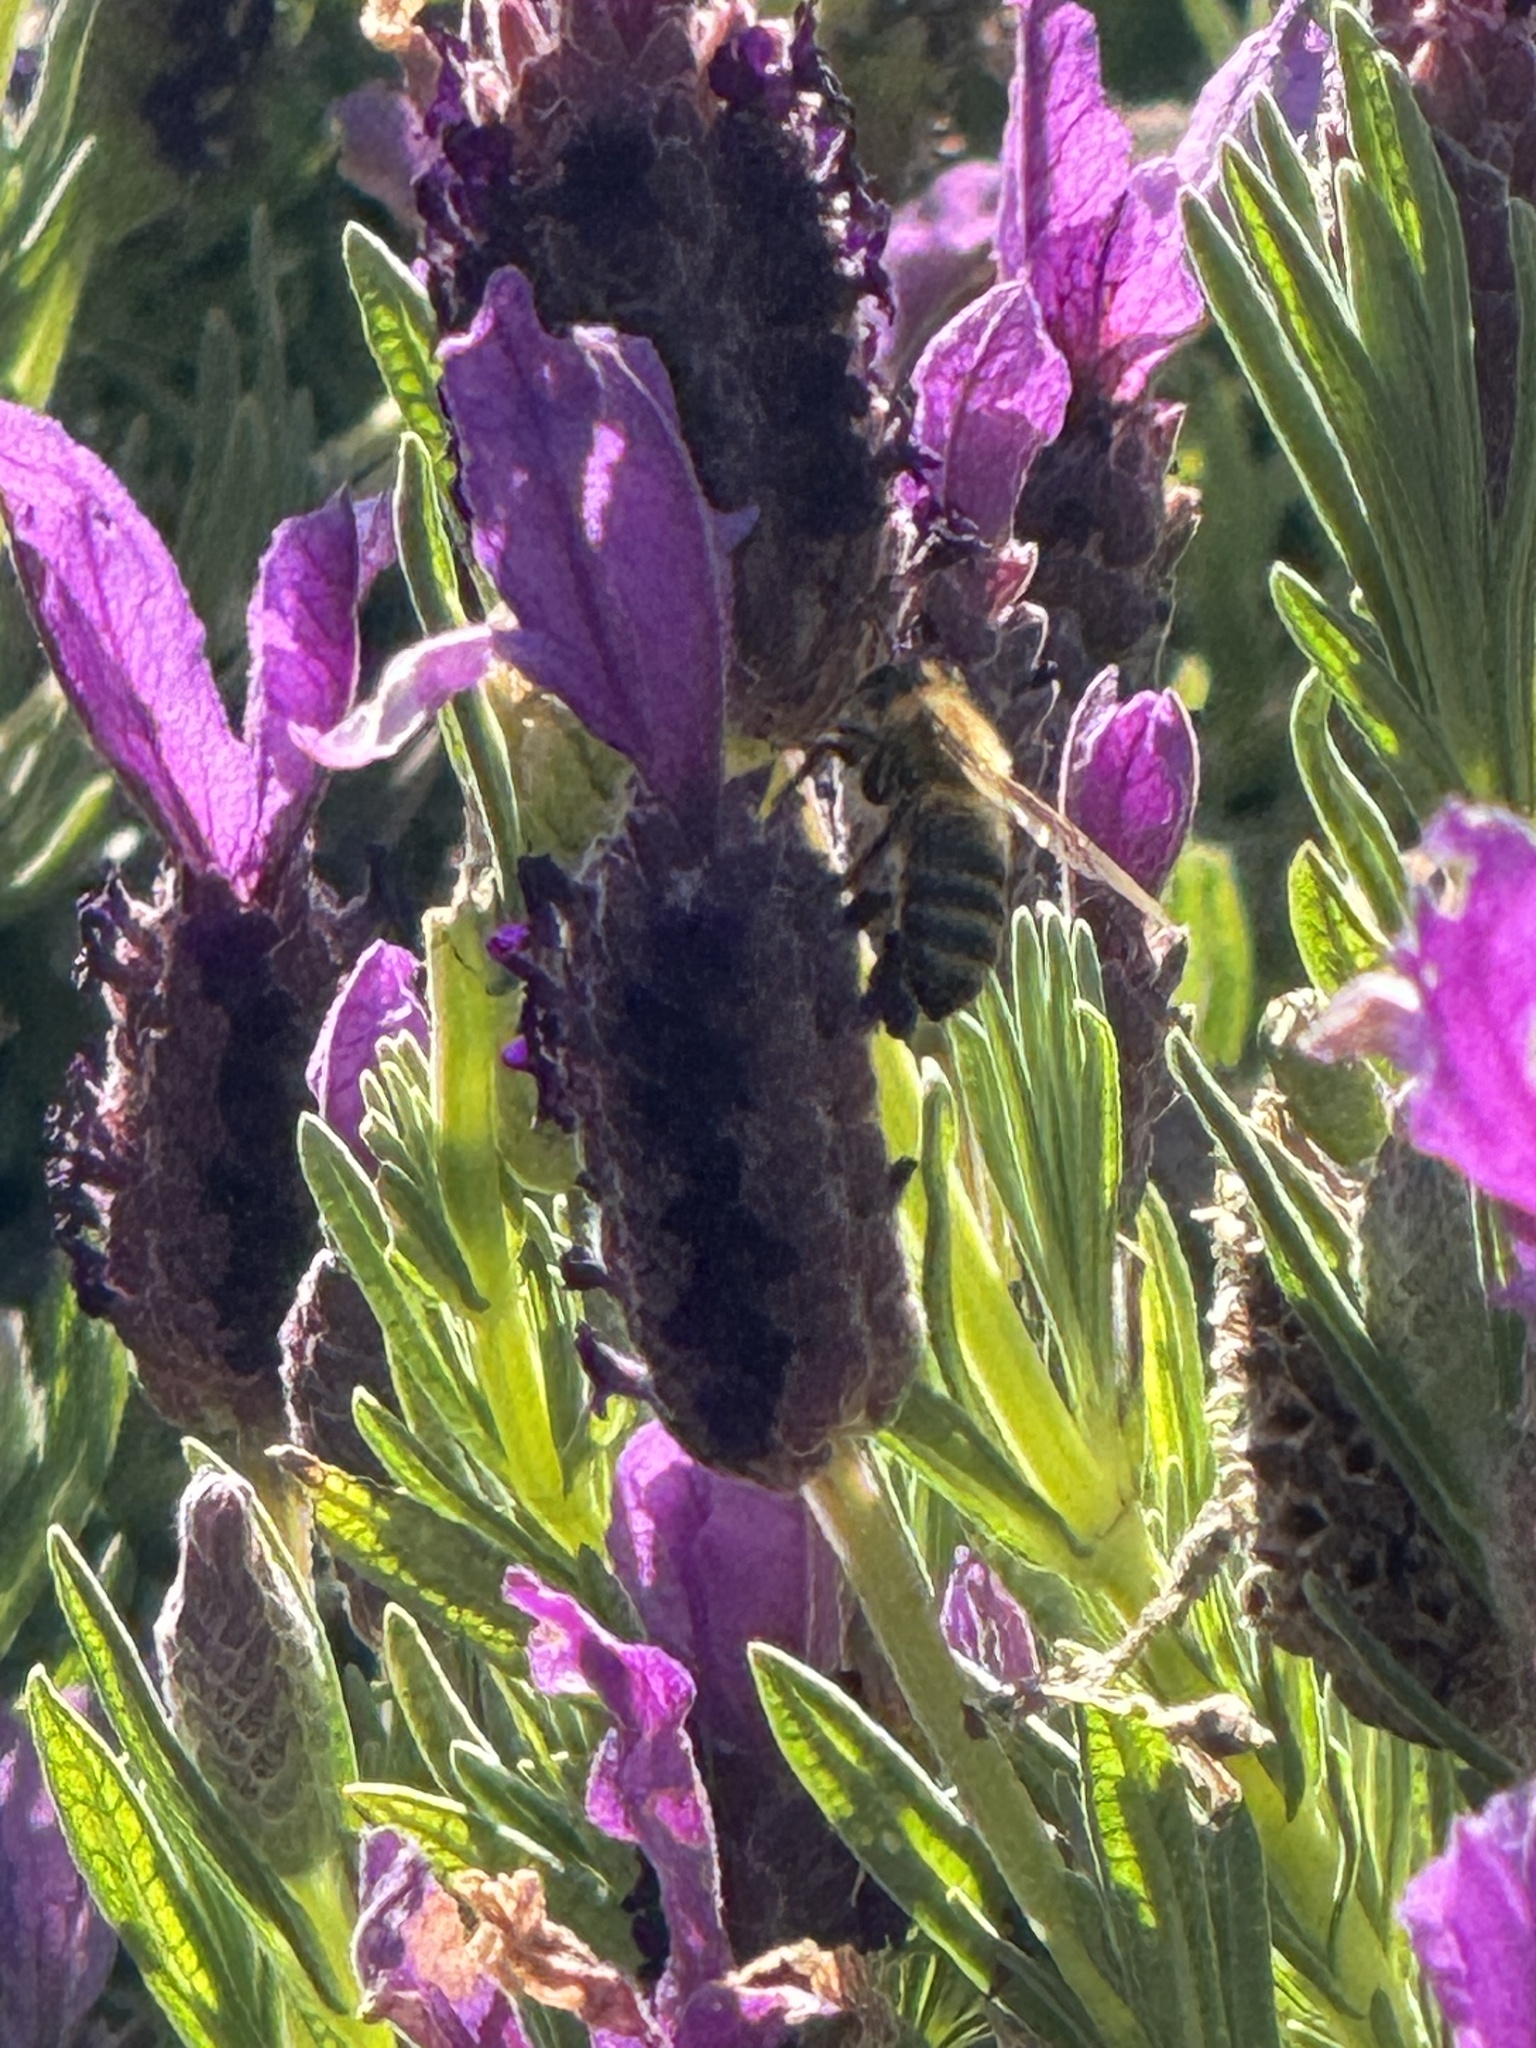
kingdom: Animalia
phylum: Arthropoda
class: Insecta
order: Hymenoptera
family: Apidae
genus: Apis
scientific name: Apis mellifera
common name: Honey bee
